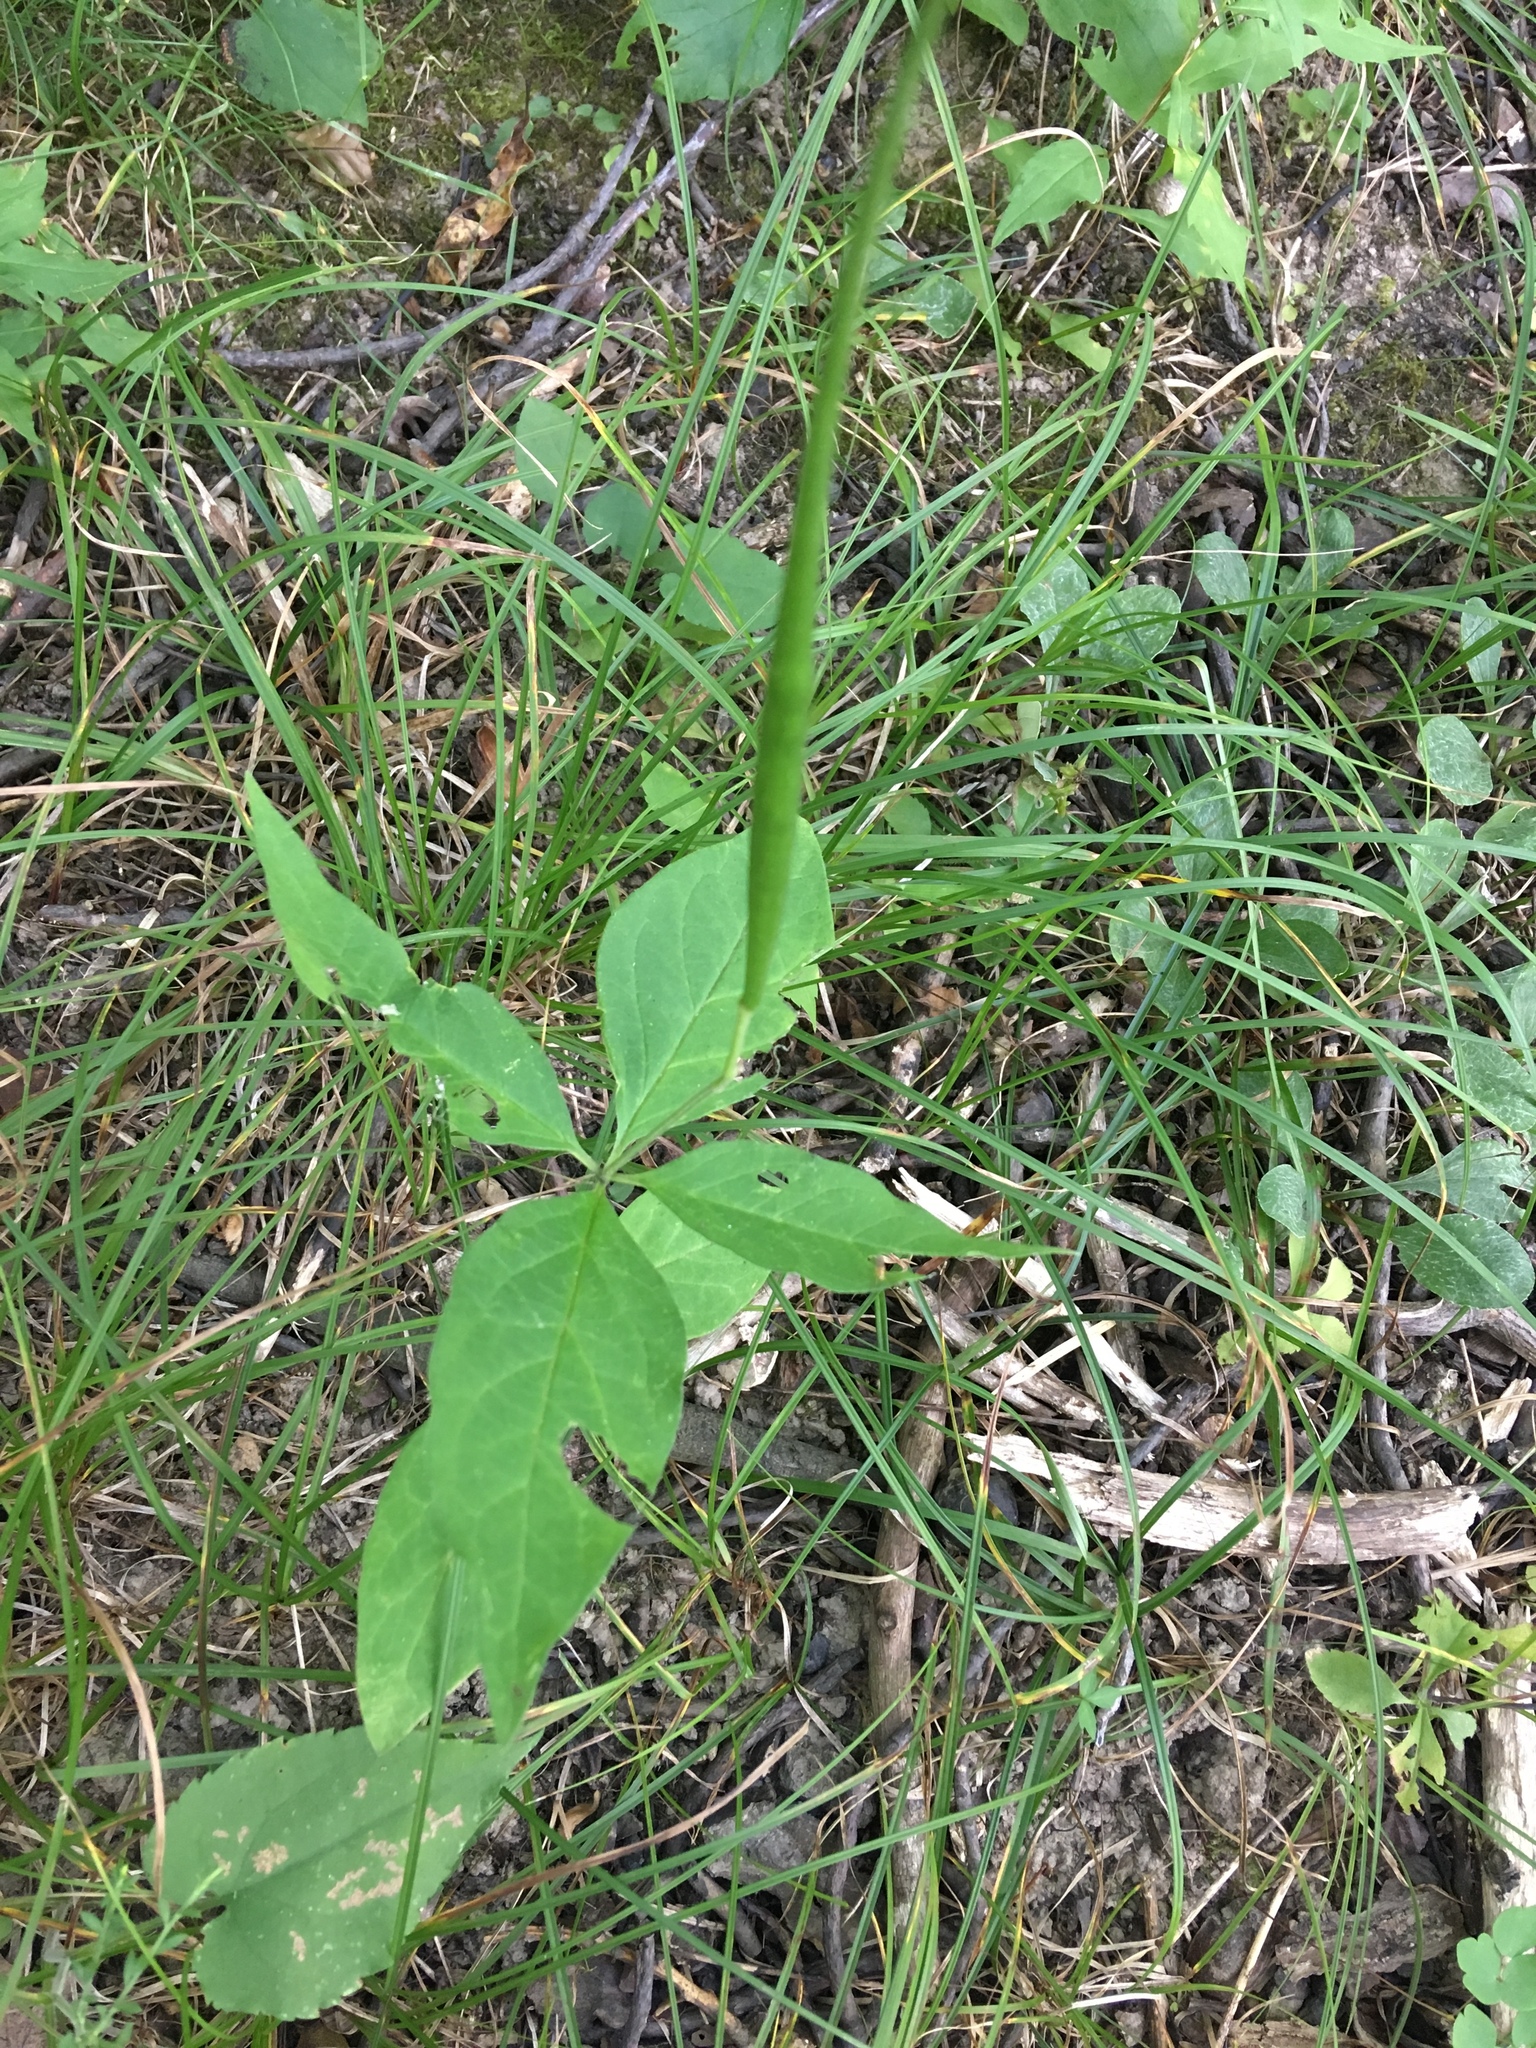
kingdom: Plantae
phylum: Tracheophyta
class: Magnoliopsida
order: Gentianales
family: Apocynaceae
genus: Asclepias
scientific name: Asclepias quadrifolia
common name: Whorled milkweed
